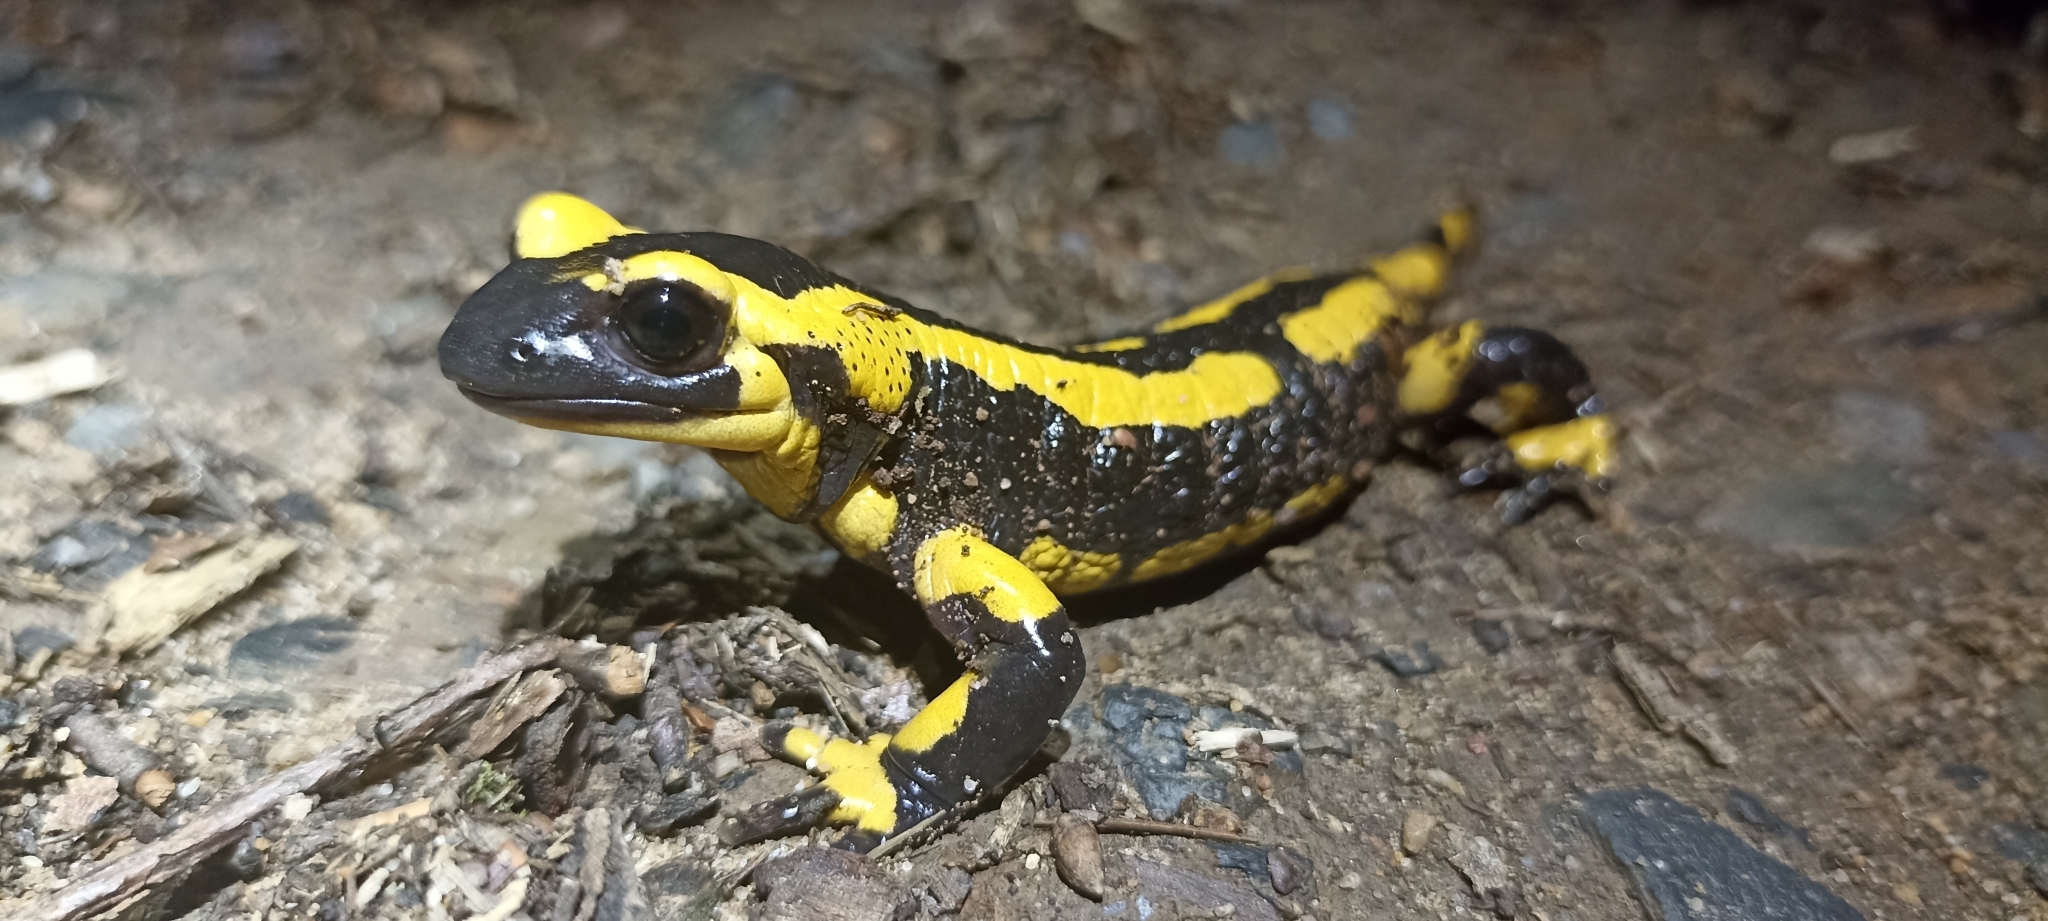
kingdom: Animalia
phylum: Chordata
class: Amphibia
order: Caudata
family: Salamandridae
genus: Salamandra
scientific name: Salamandra salamandra
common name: Fire salamander
